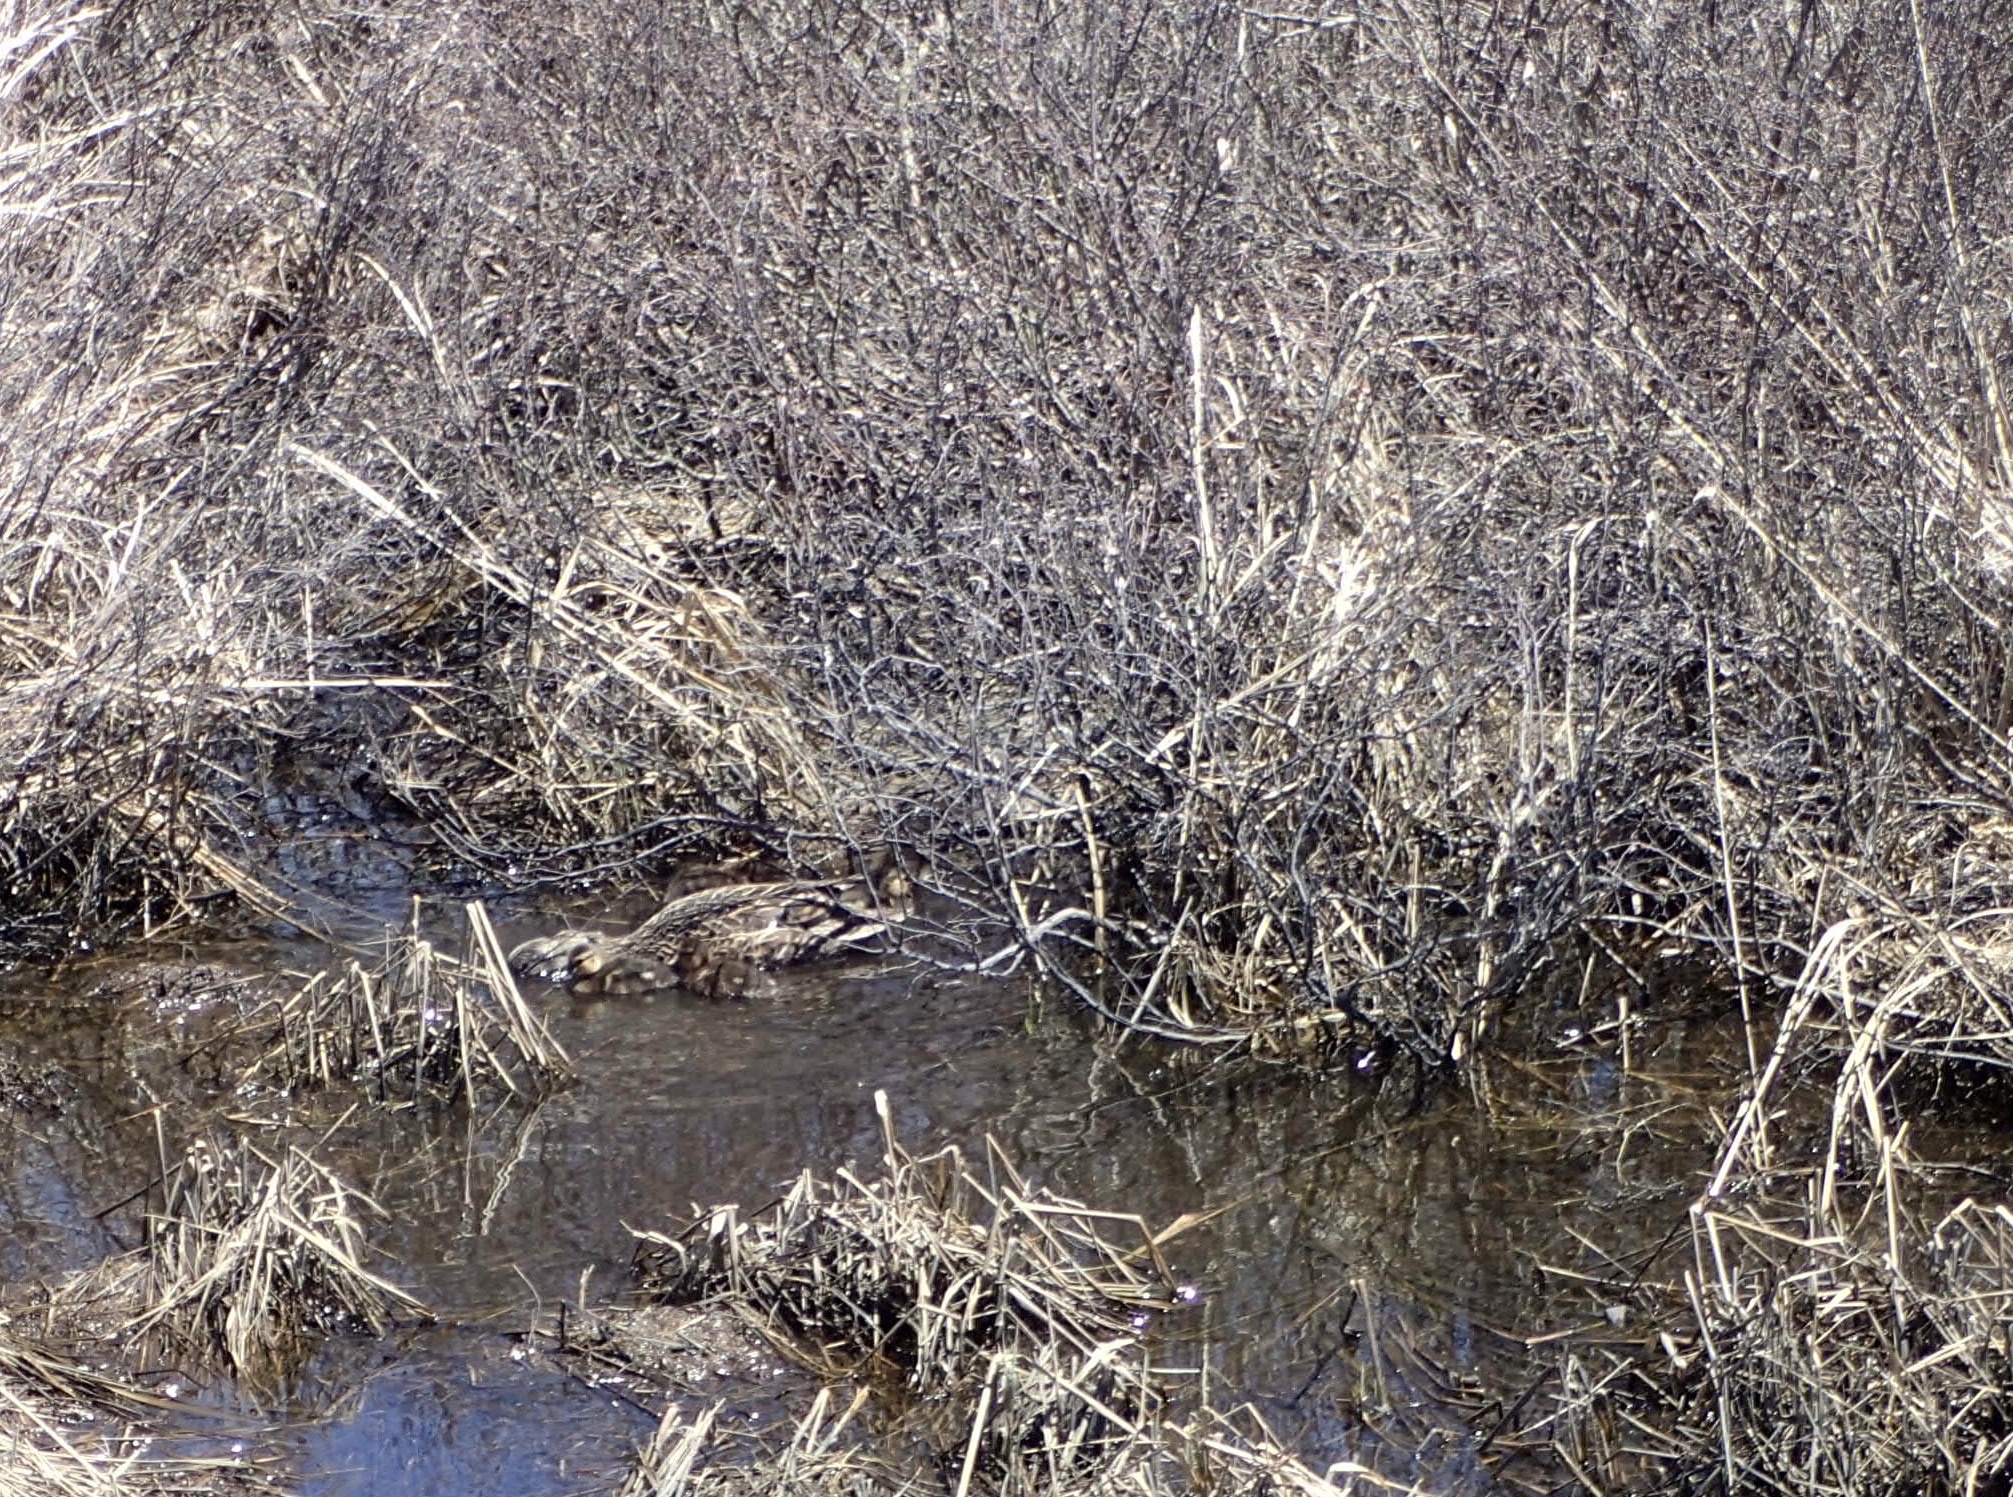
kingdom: Animalia
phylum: Chordata
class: Aves
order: Anseriformes
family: Anatidae
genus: Anas
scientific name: Anas rubripes
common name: American black duck
